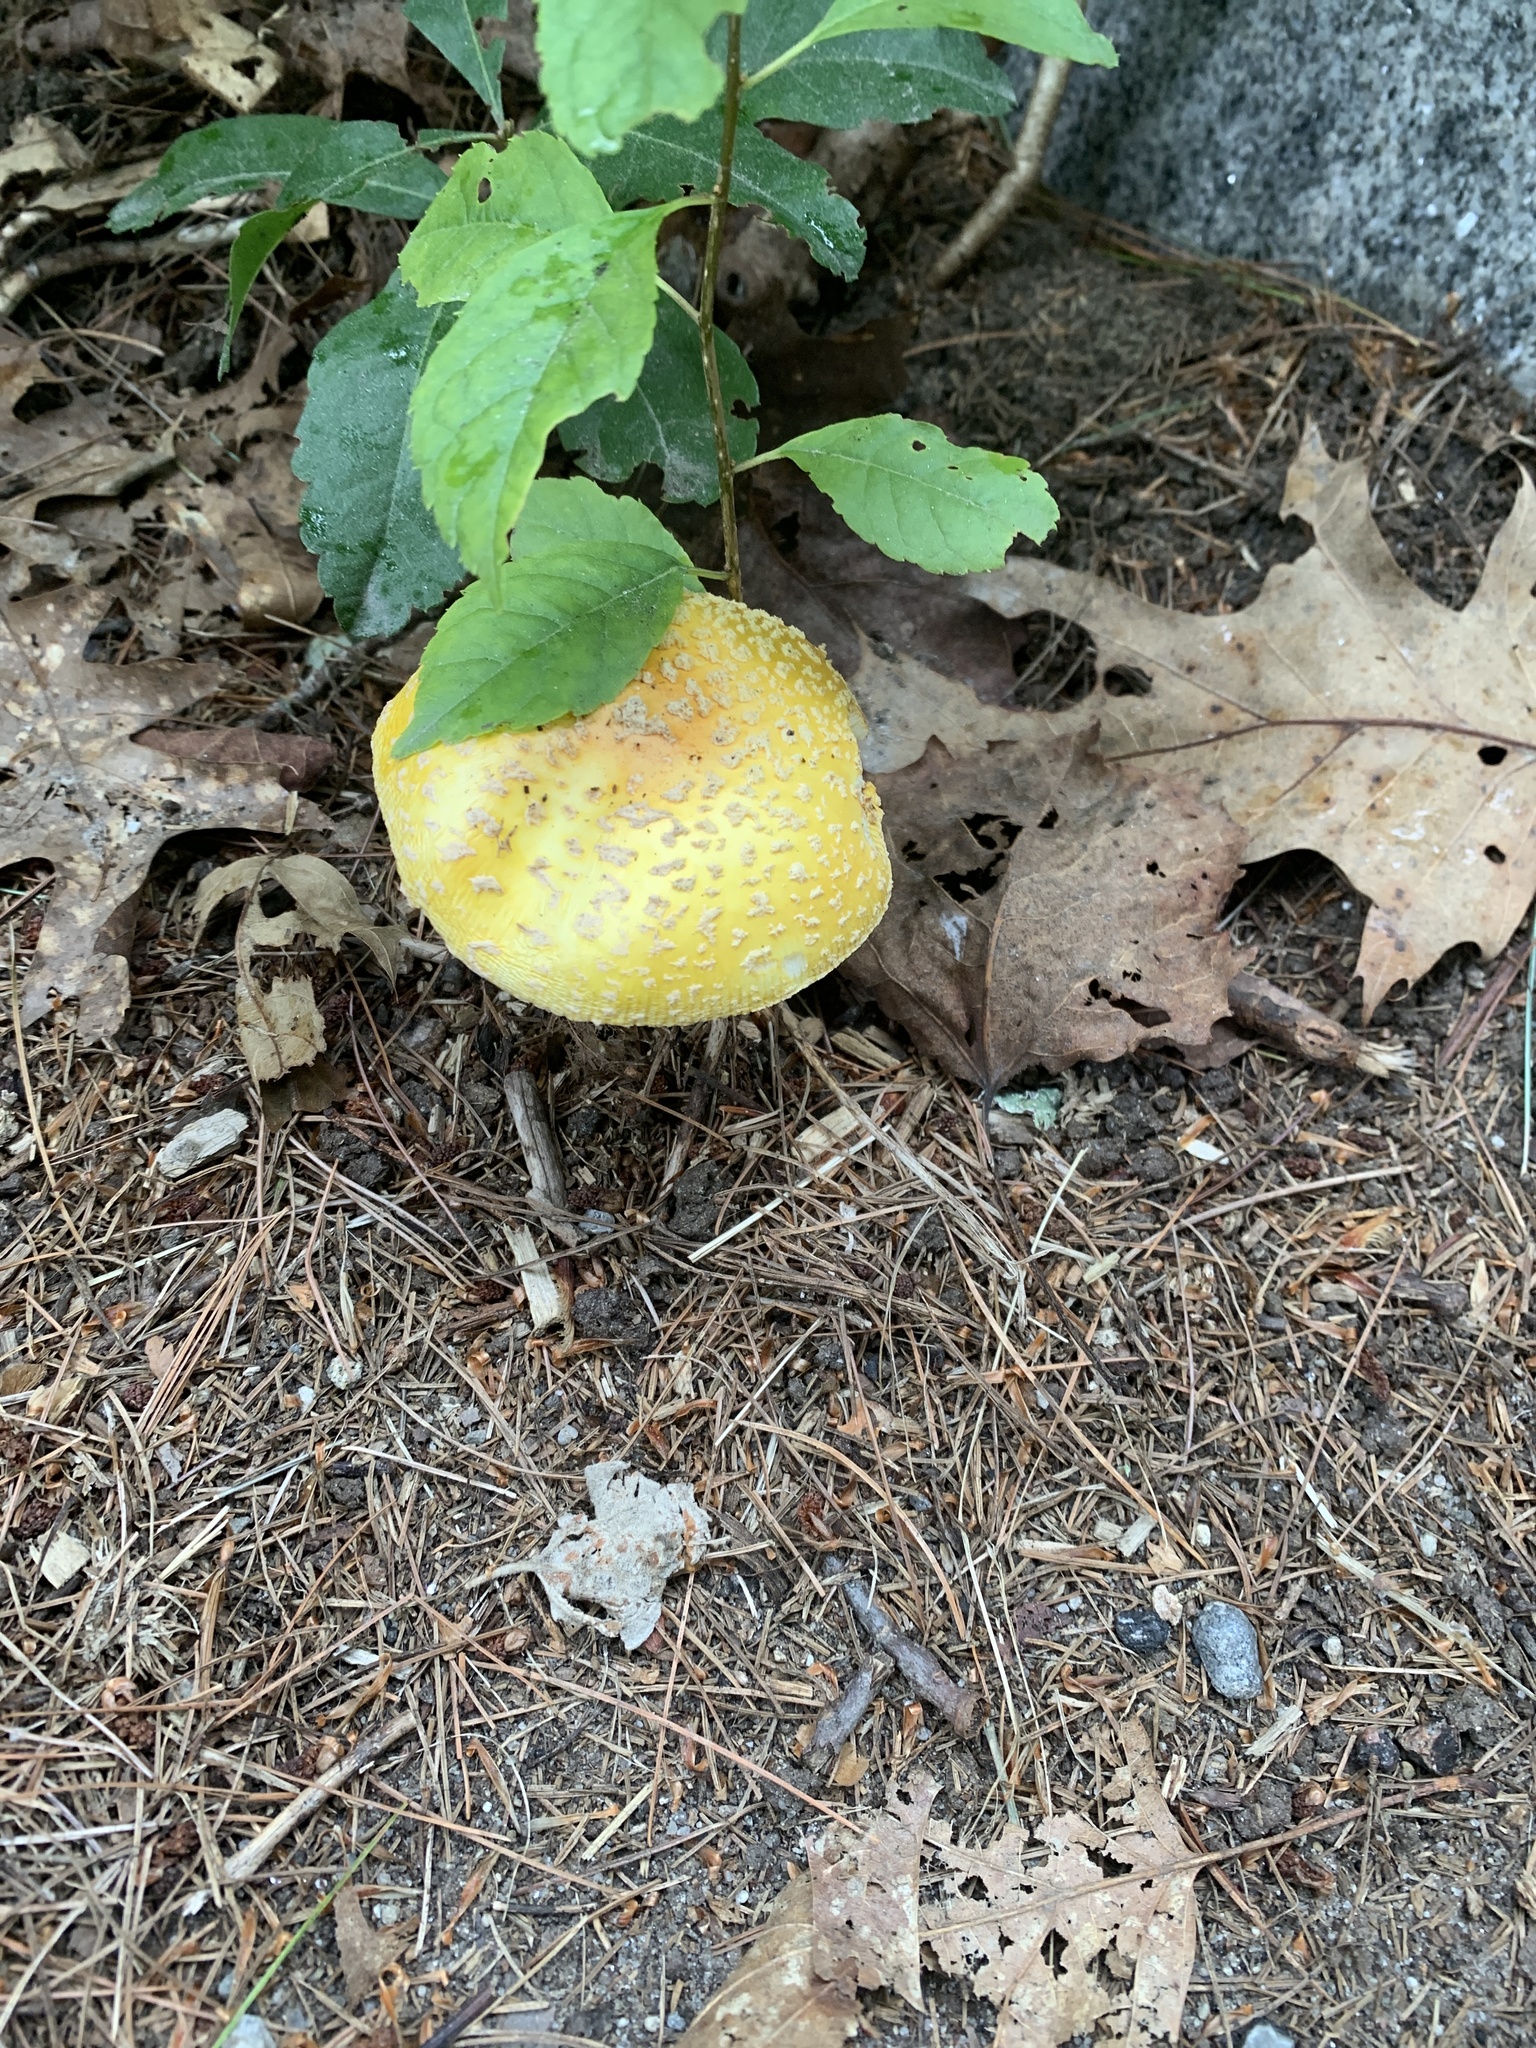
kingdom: Fungi
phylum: Basidiomycota
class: Agaricomycetes
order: Agaricales
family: Amanitaceae
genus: Amanita
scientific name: Amanita muscaria
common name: Fly agaric
